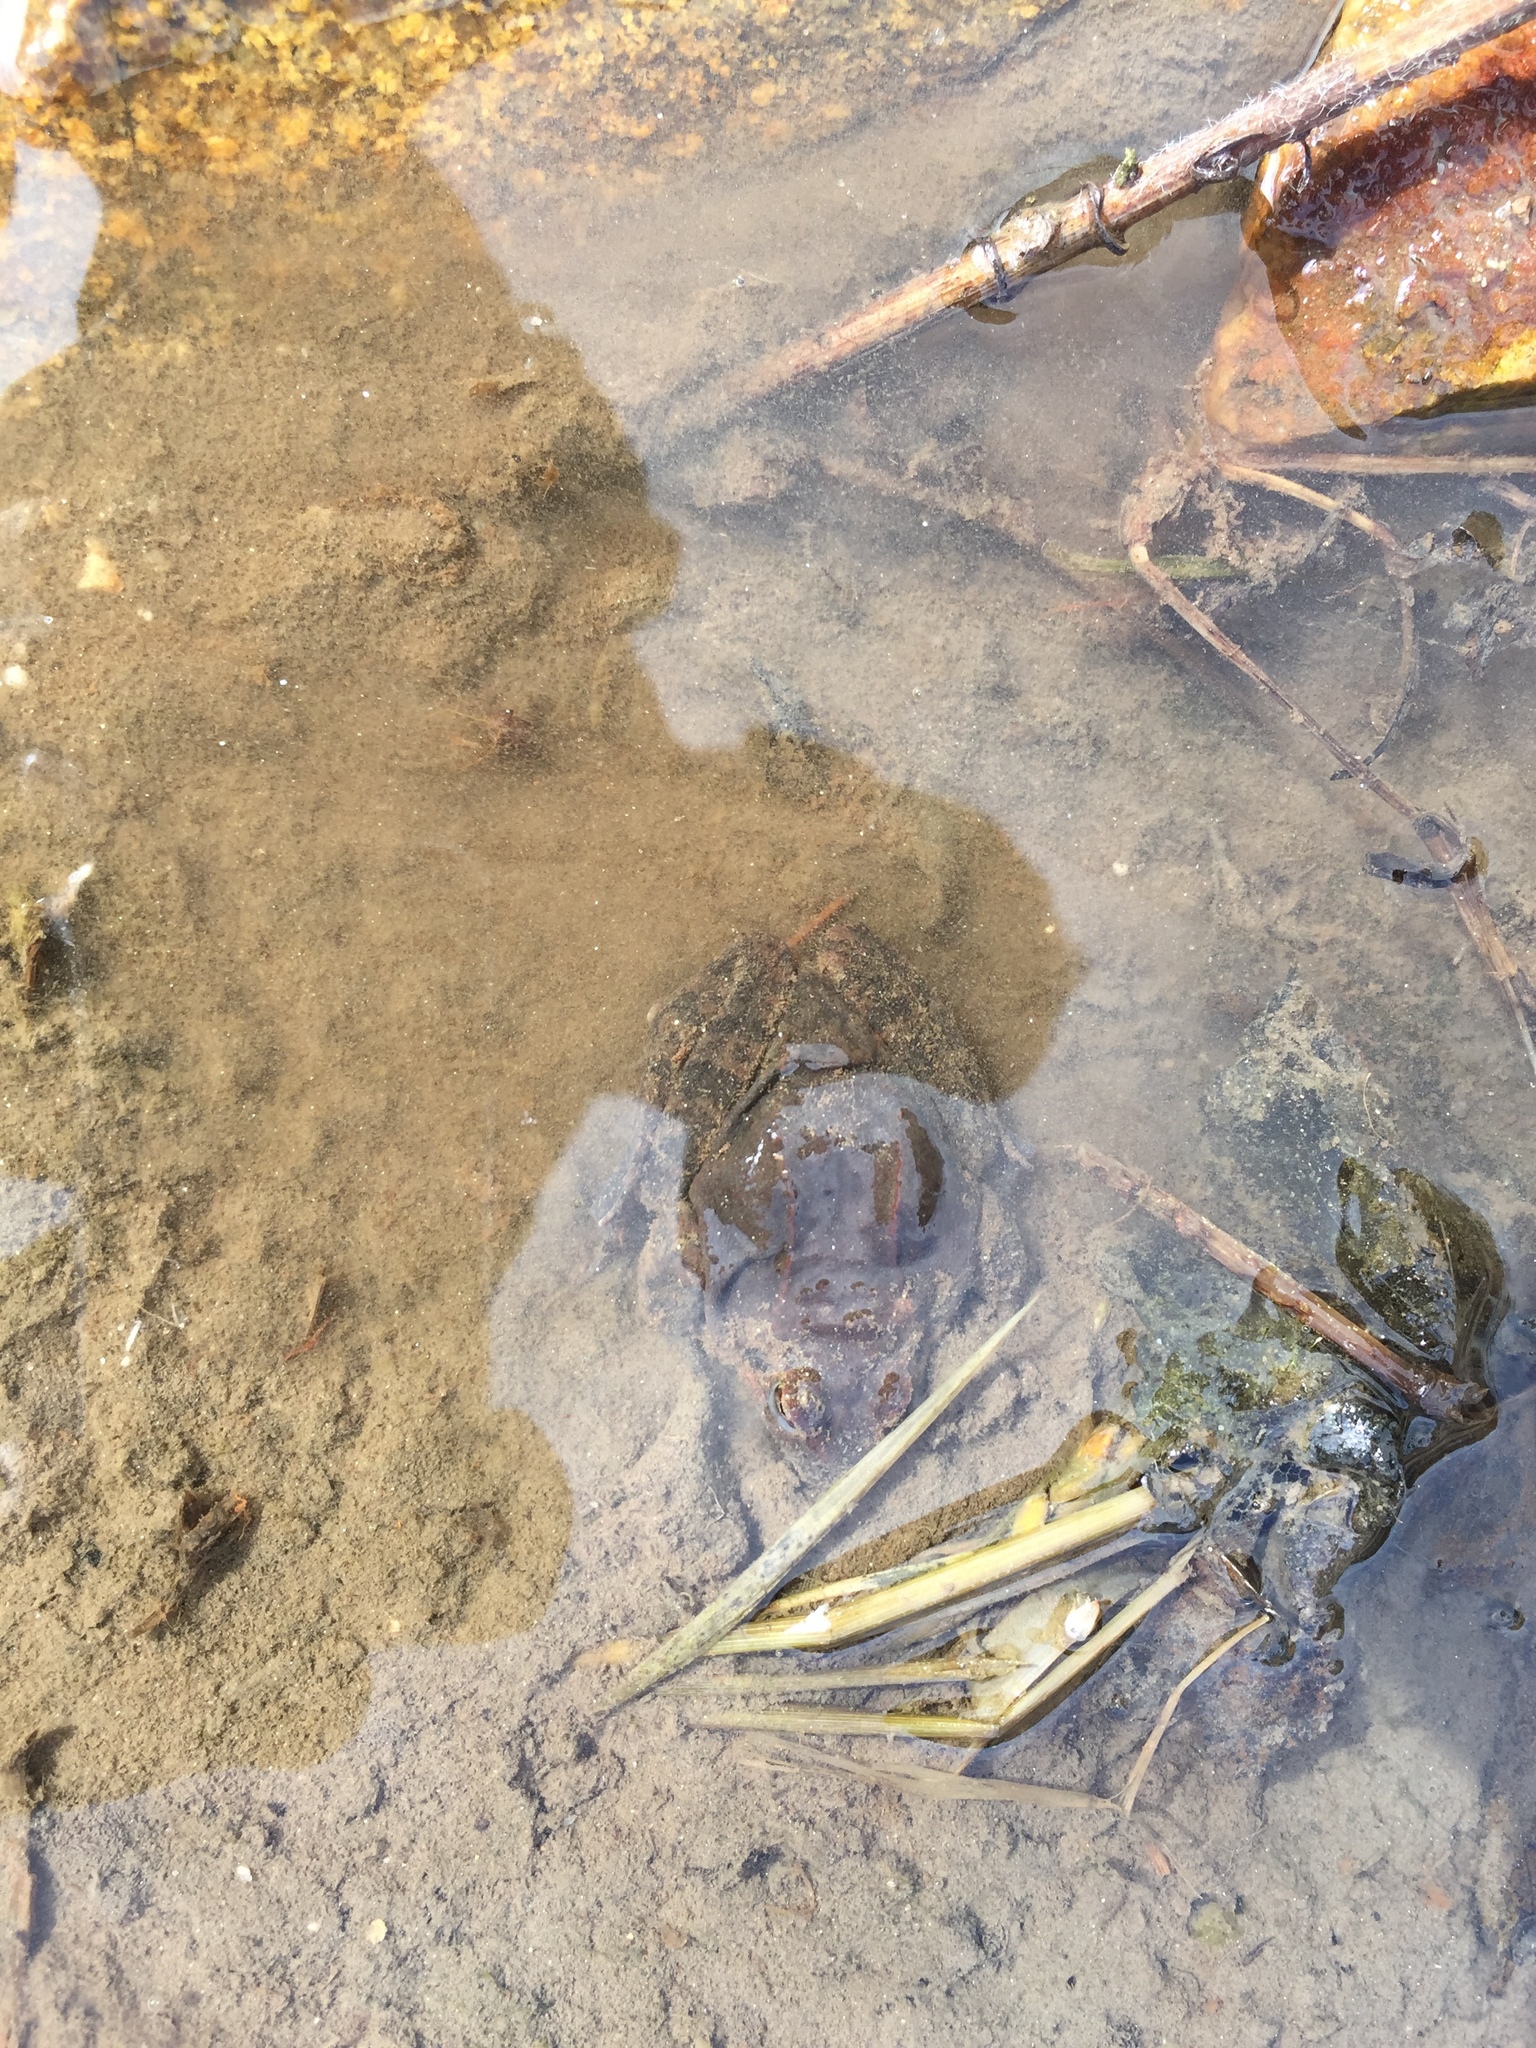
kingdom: Animalia
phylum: Chordata
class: Amphibia
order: Anura
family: Ranidae
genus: Rana
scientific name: Rana uenoi
